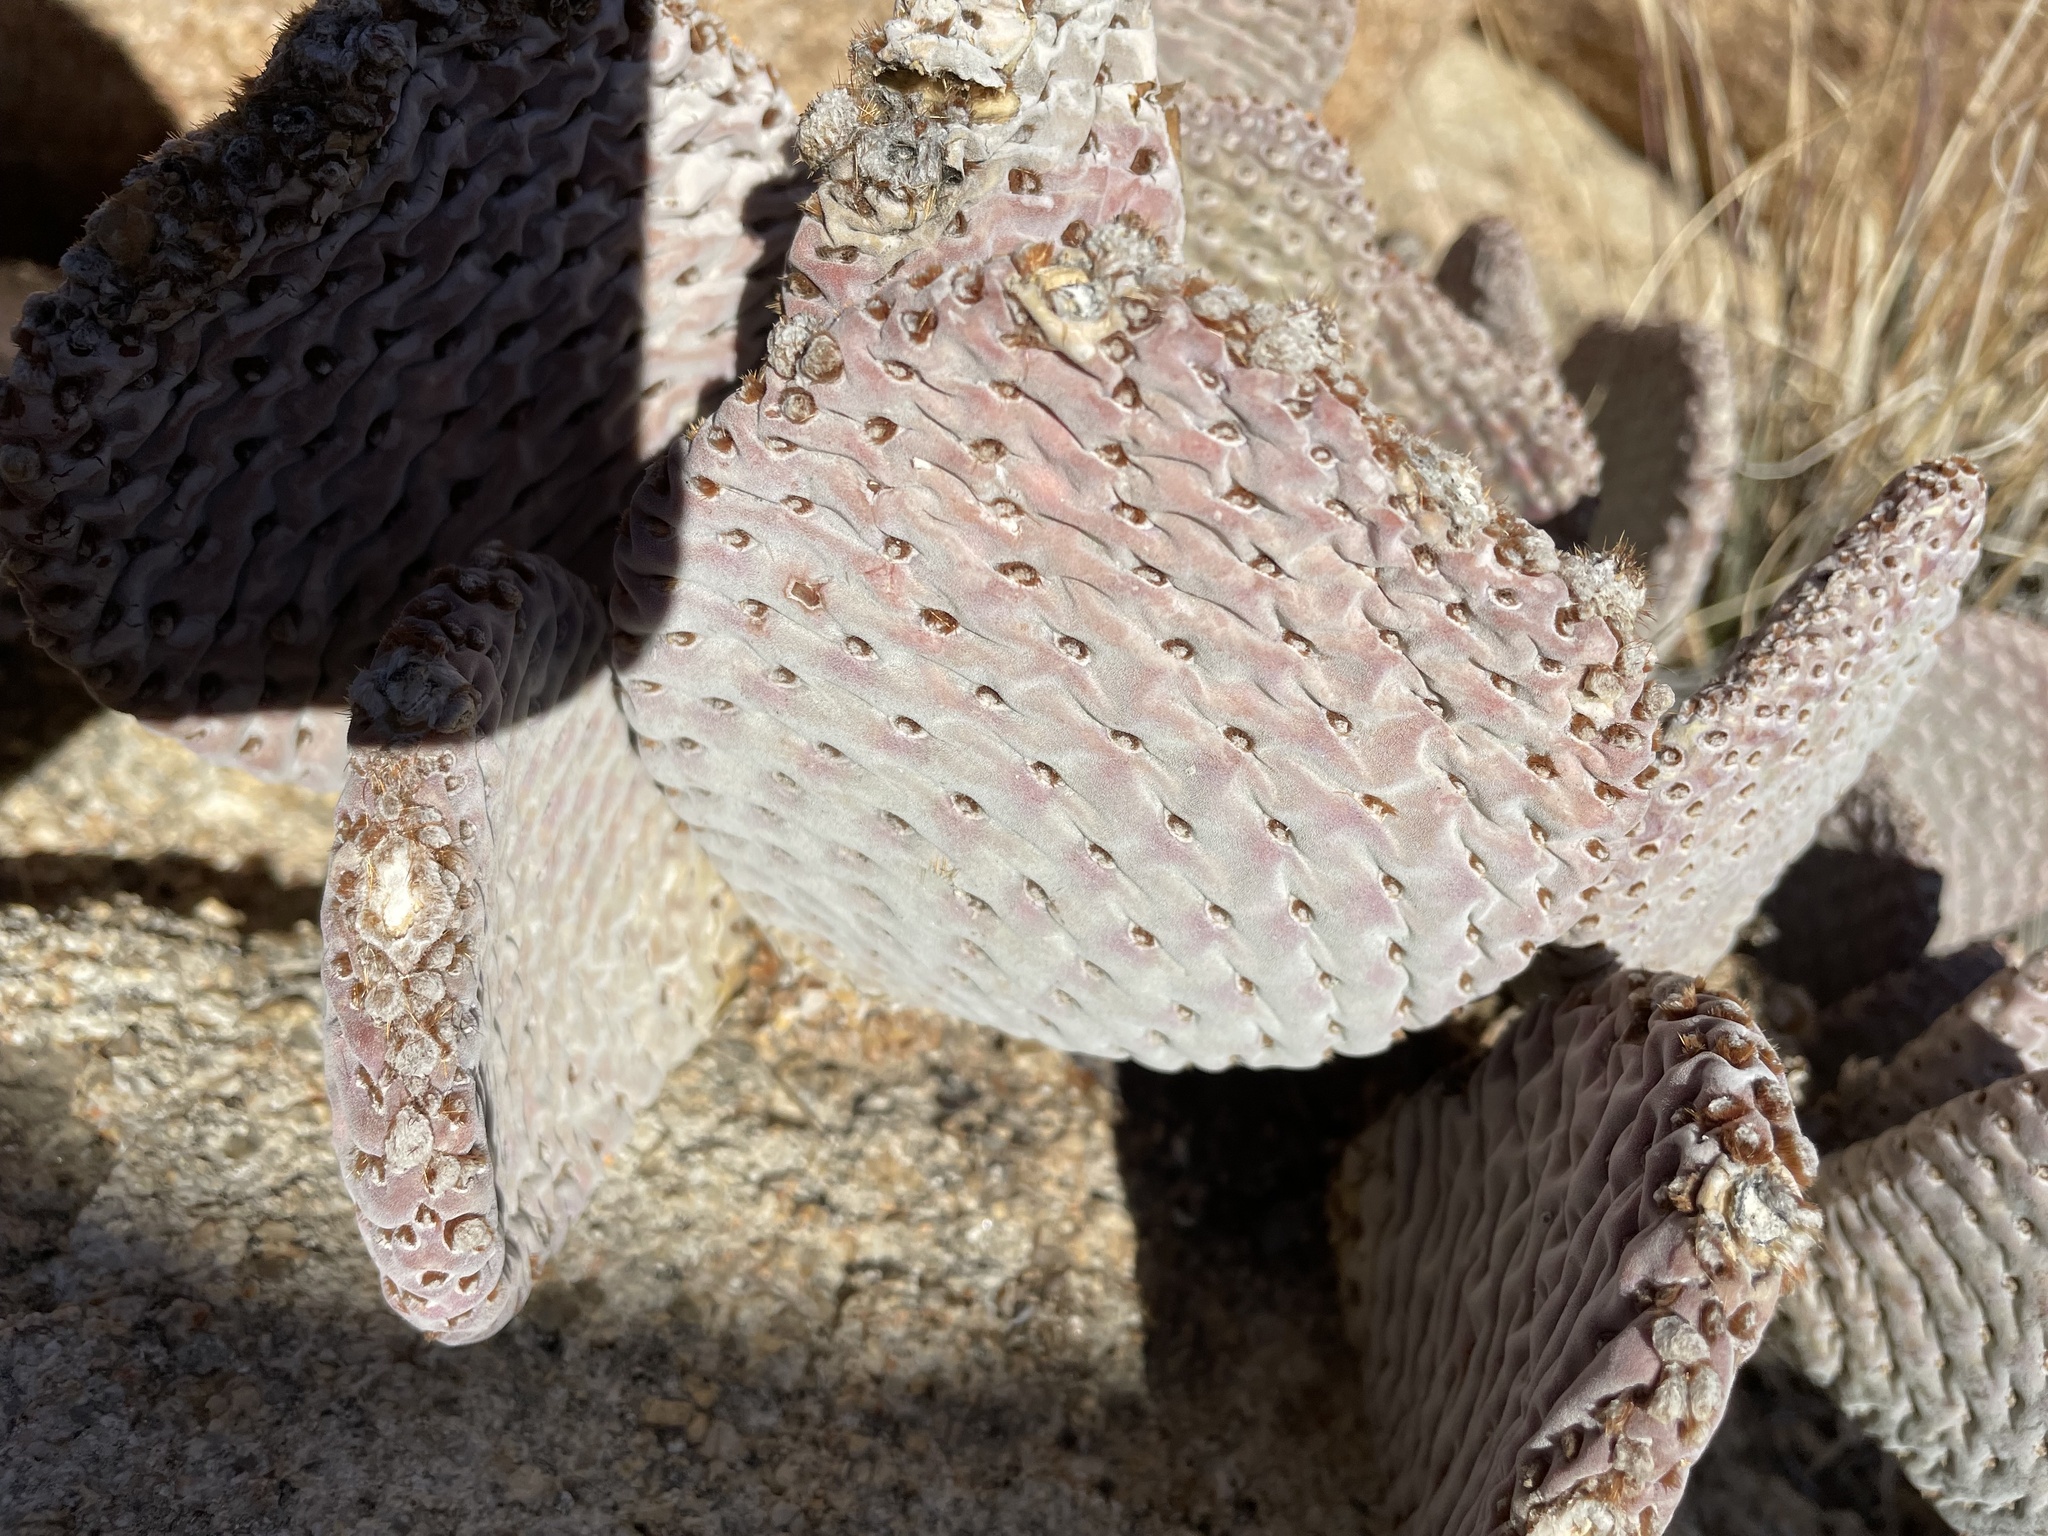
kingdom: Plantae
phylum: Tracheophyta
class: Magnoliopsida
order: Caryophyllales
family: Cactaceae
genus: Opuntia
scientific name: Opuntia basilaris
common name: Beavertail prickly-pear
